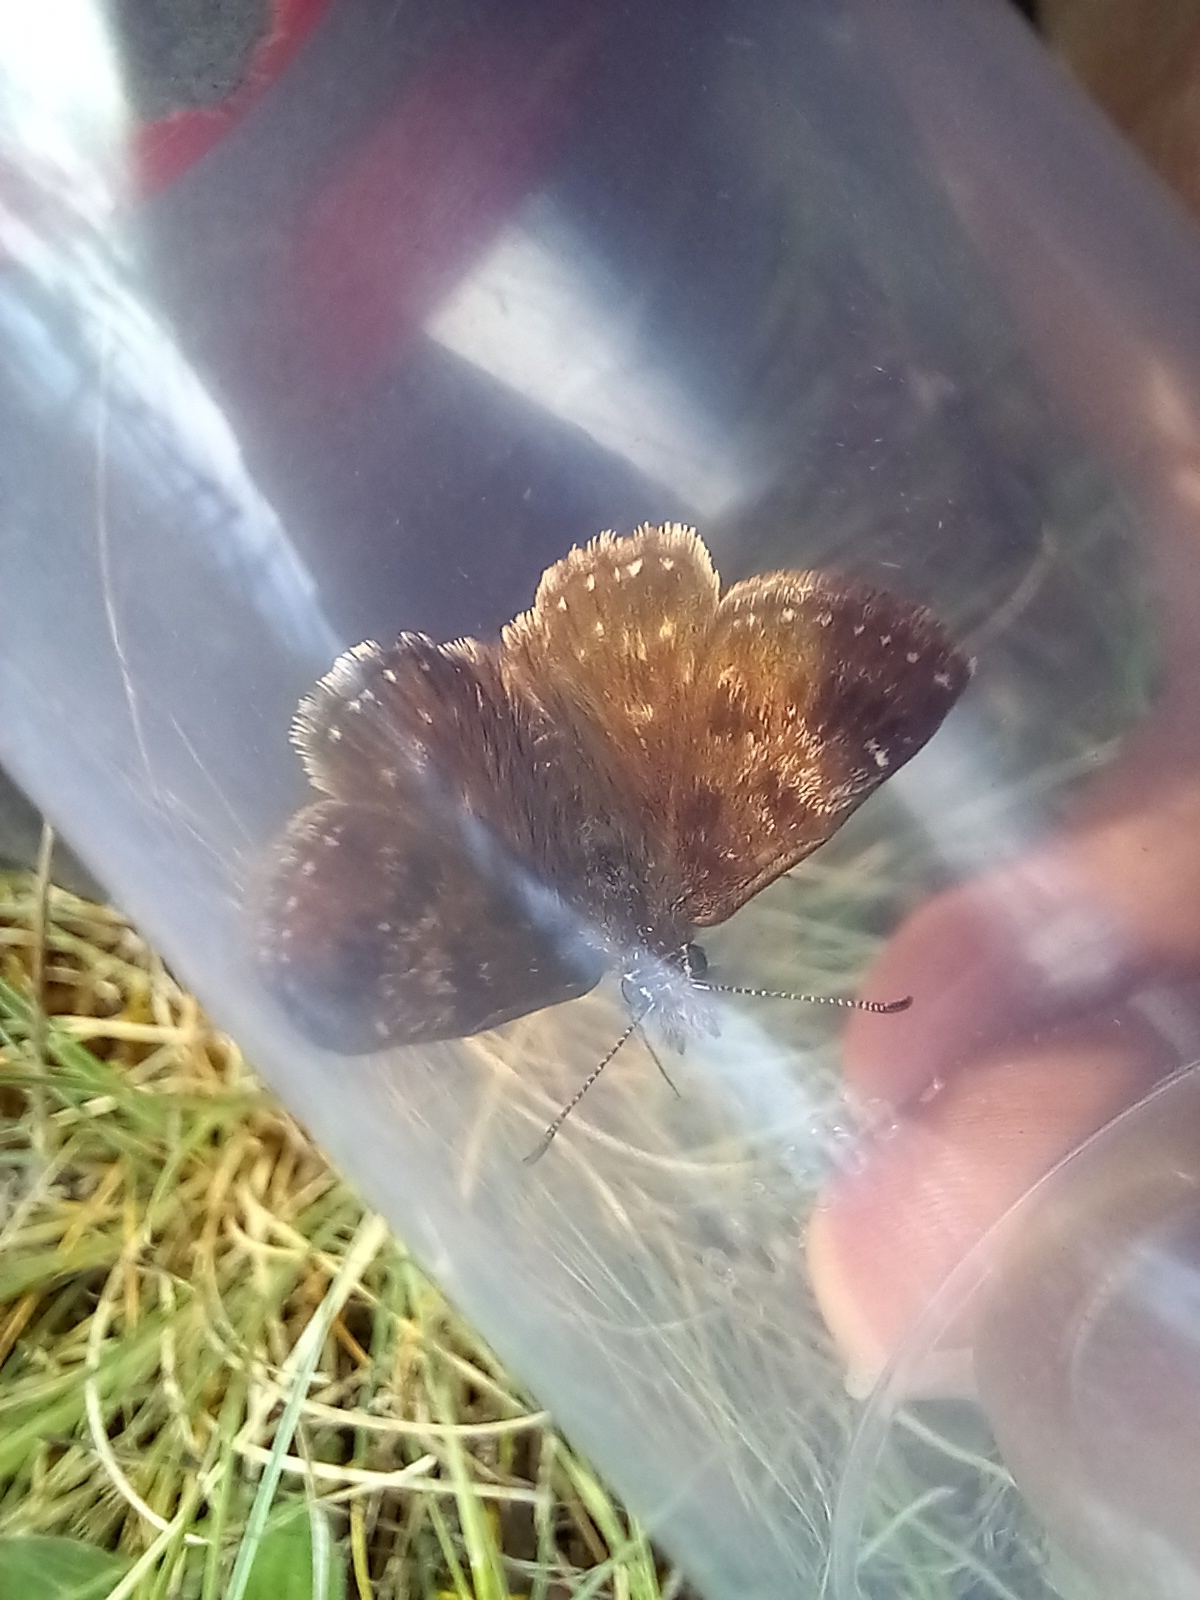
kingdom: Animalia
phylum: Arthropoda
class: Insecta
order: Lepidoptera
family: Hesperiidae
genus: Erynnis
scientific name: Erynnis tages
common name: Dingy skipper
